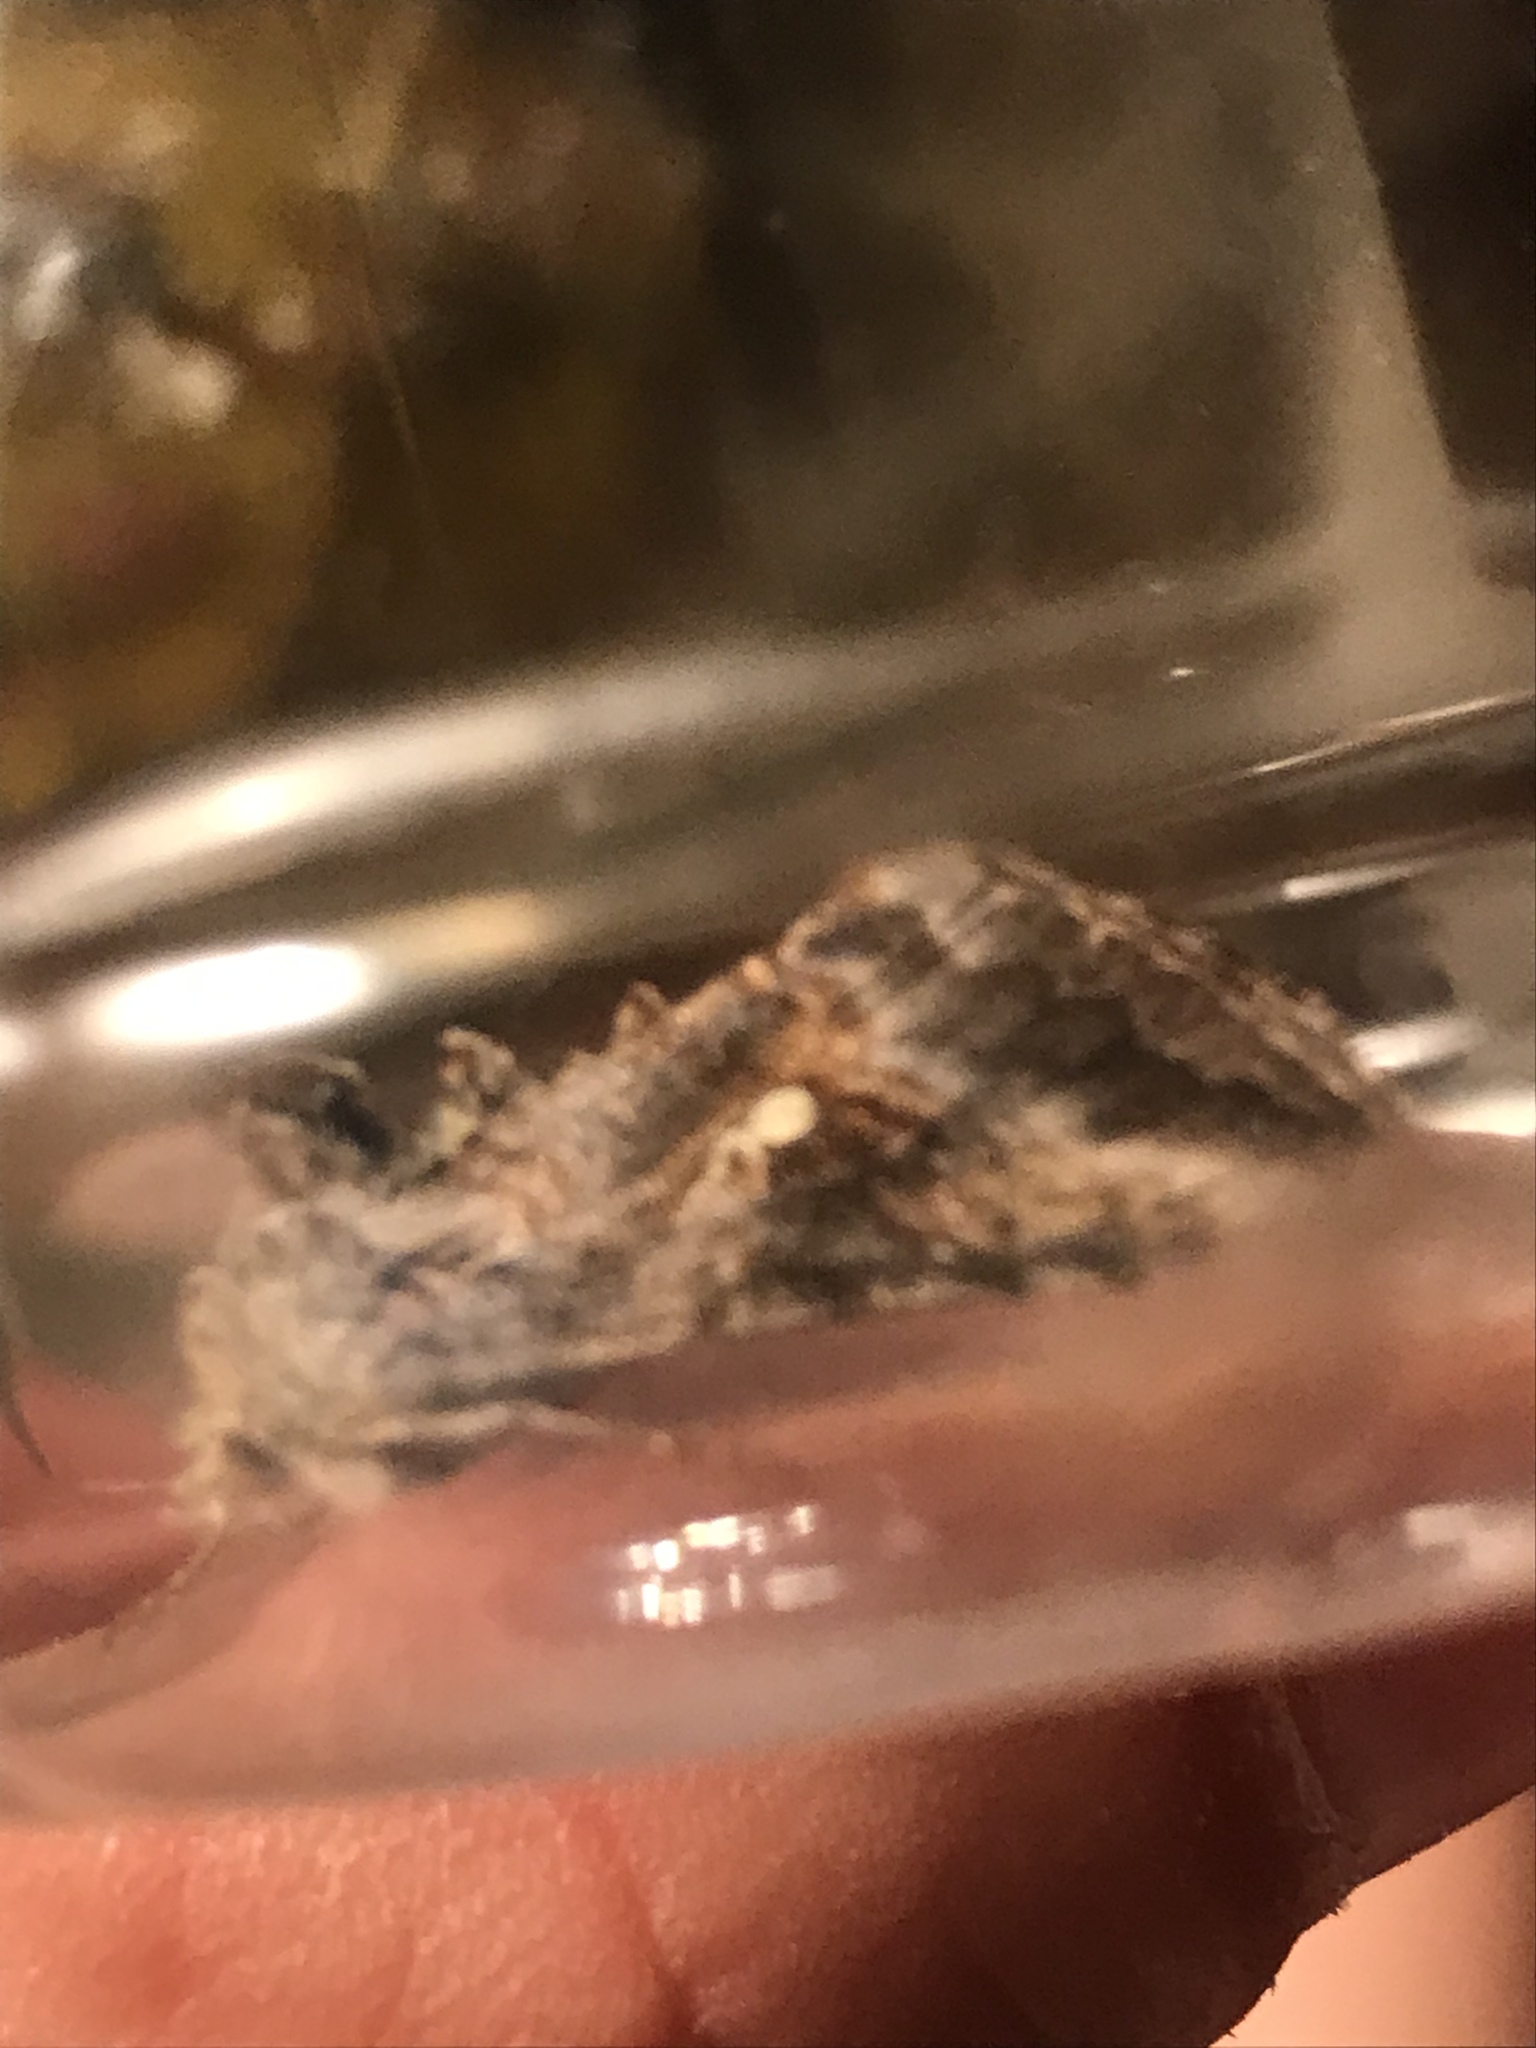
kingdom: Animalia
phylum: Arthropoda
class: Insecta
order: Lepidoptera
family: Noctuidae
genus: Rachiplusia
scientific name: Rachiplusia ou
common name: Gray looper moth
